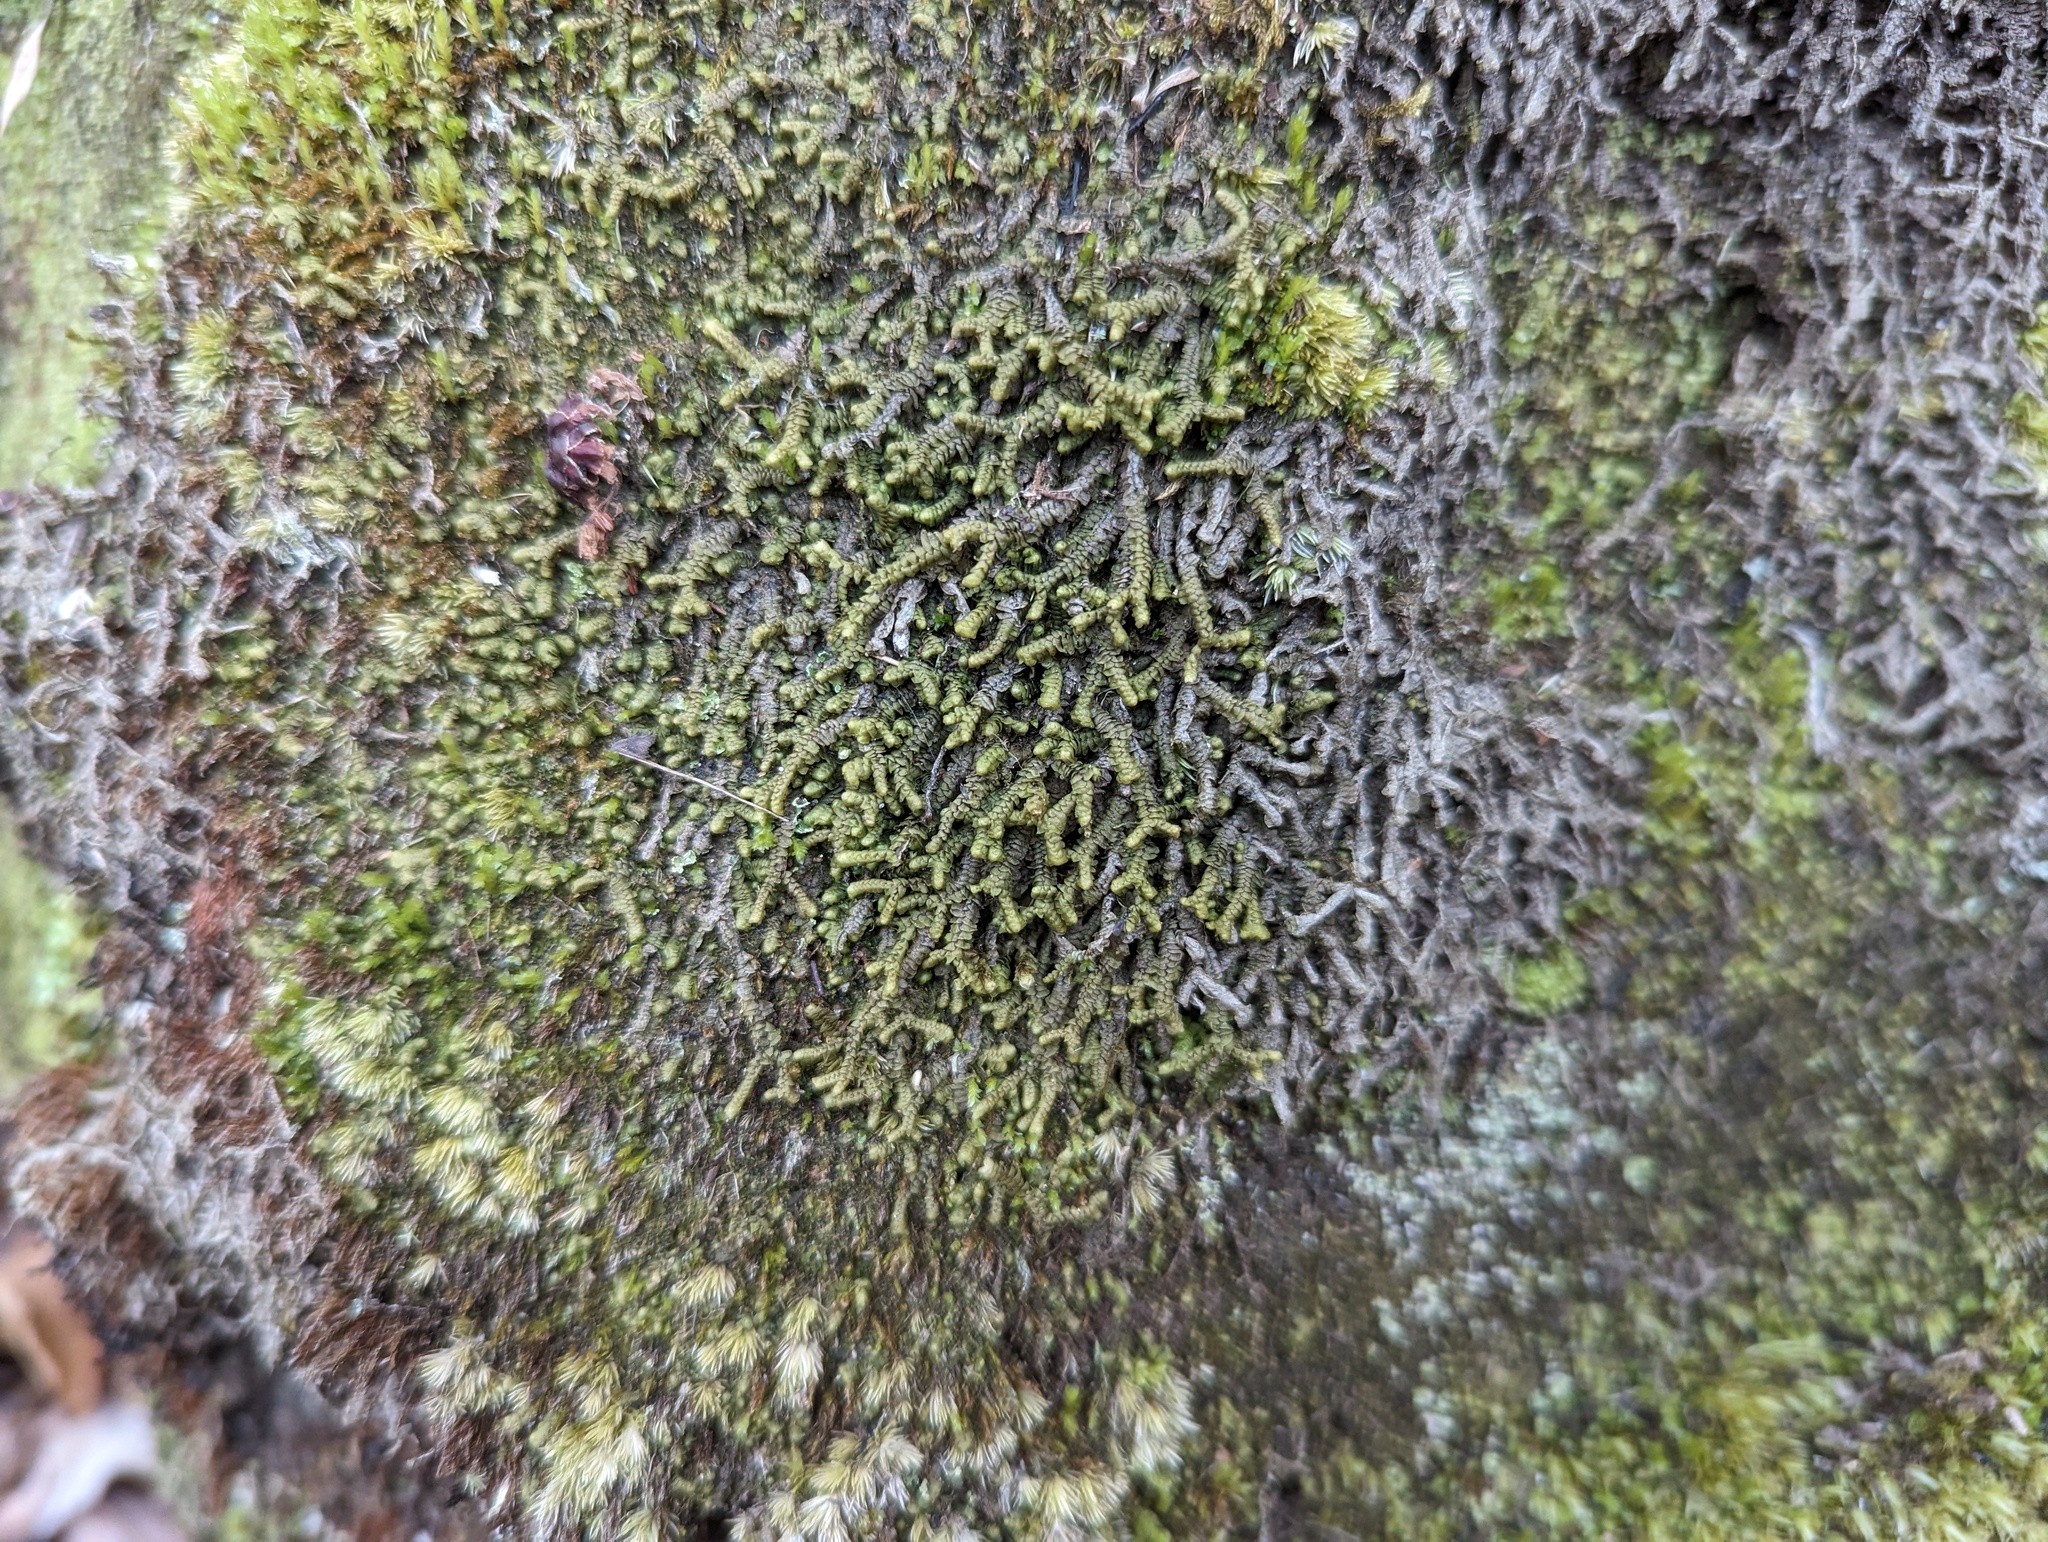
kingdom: Plantae
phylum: Marchantiophyta
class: Jungermanniopsida
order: Jungermanniales
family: Lepidoziaceae
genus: Bazzania
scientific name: Bazzania trilobata
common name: Three-lobed whipwort
